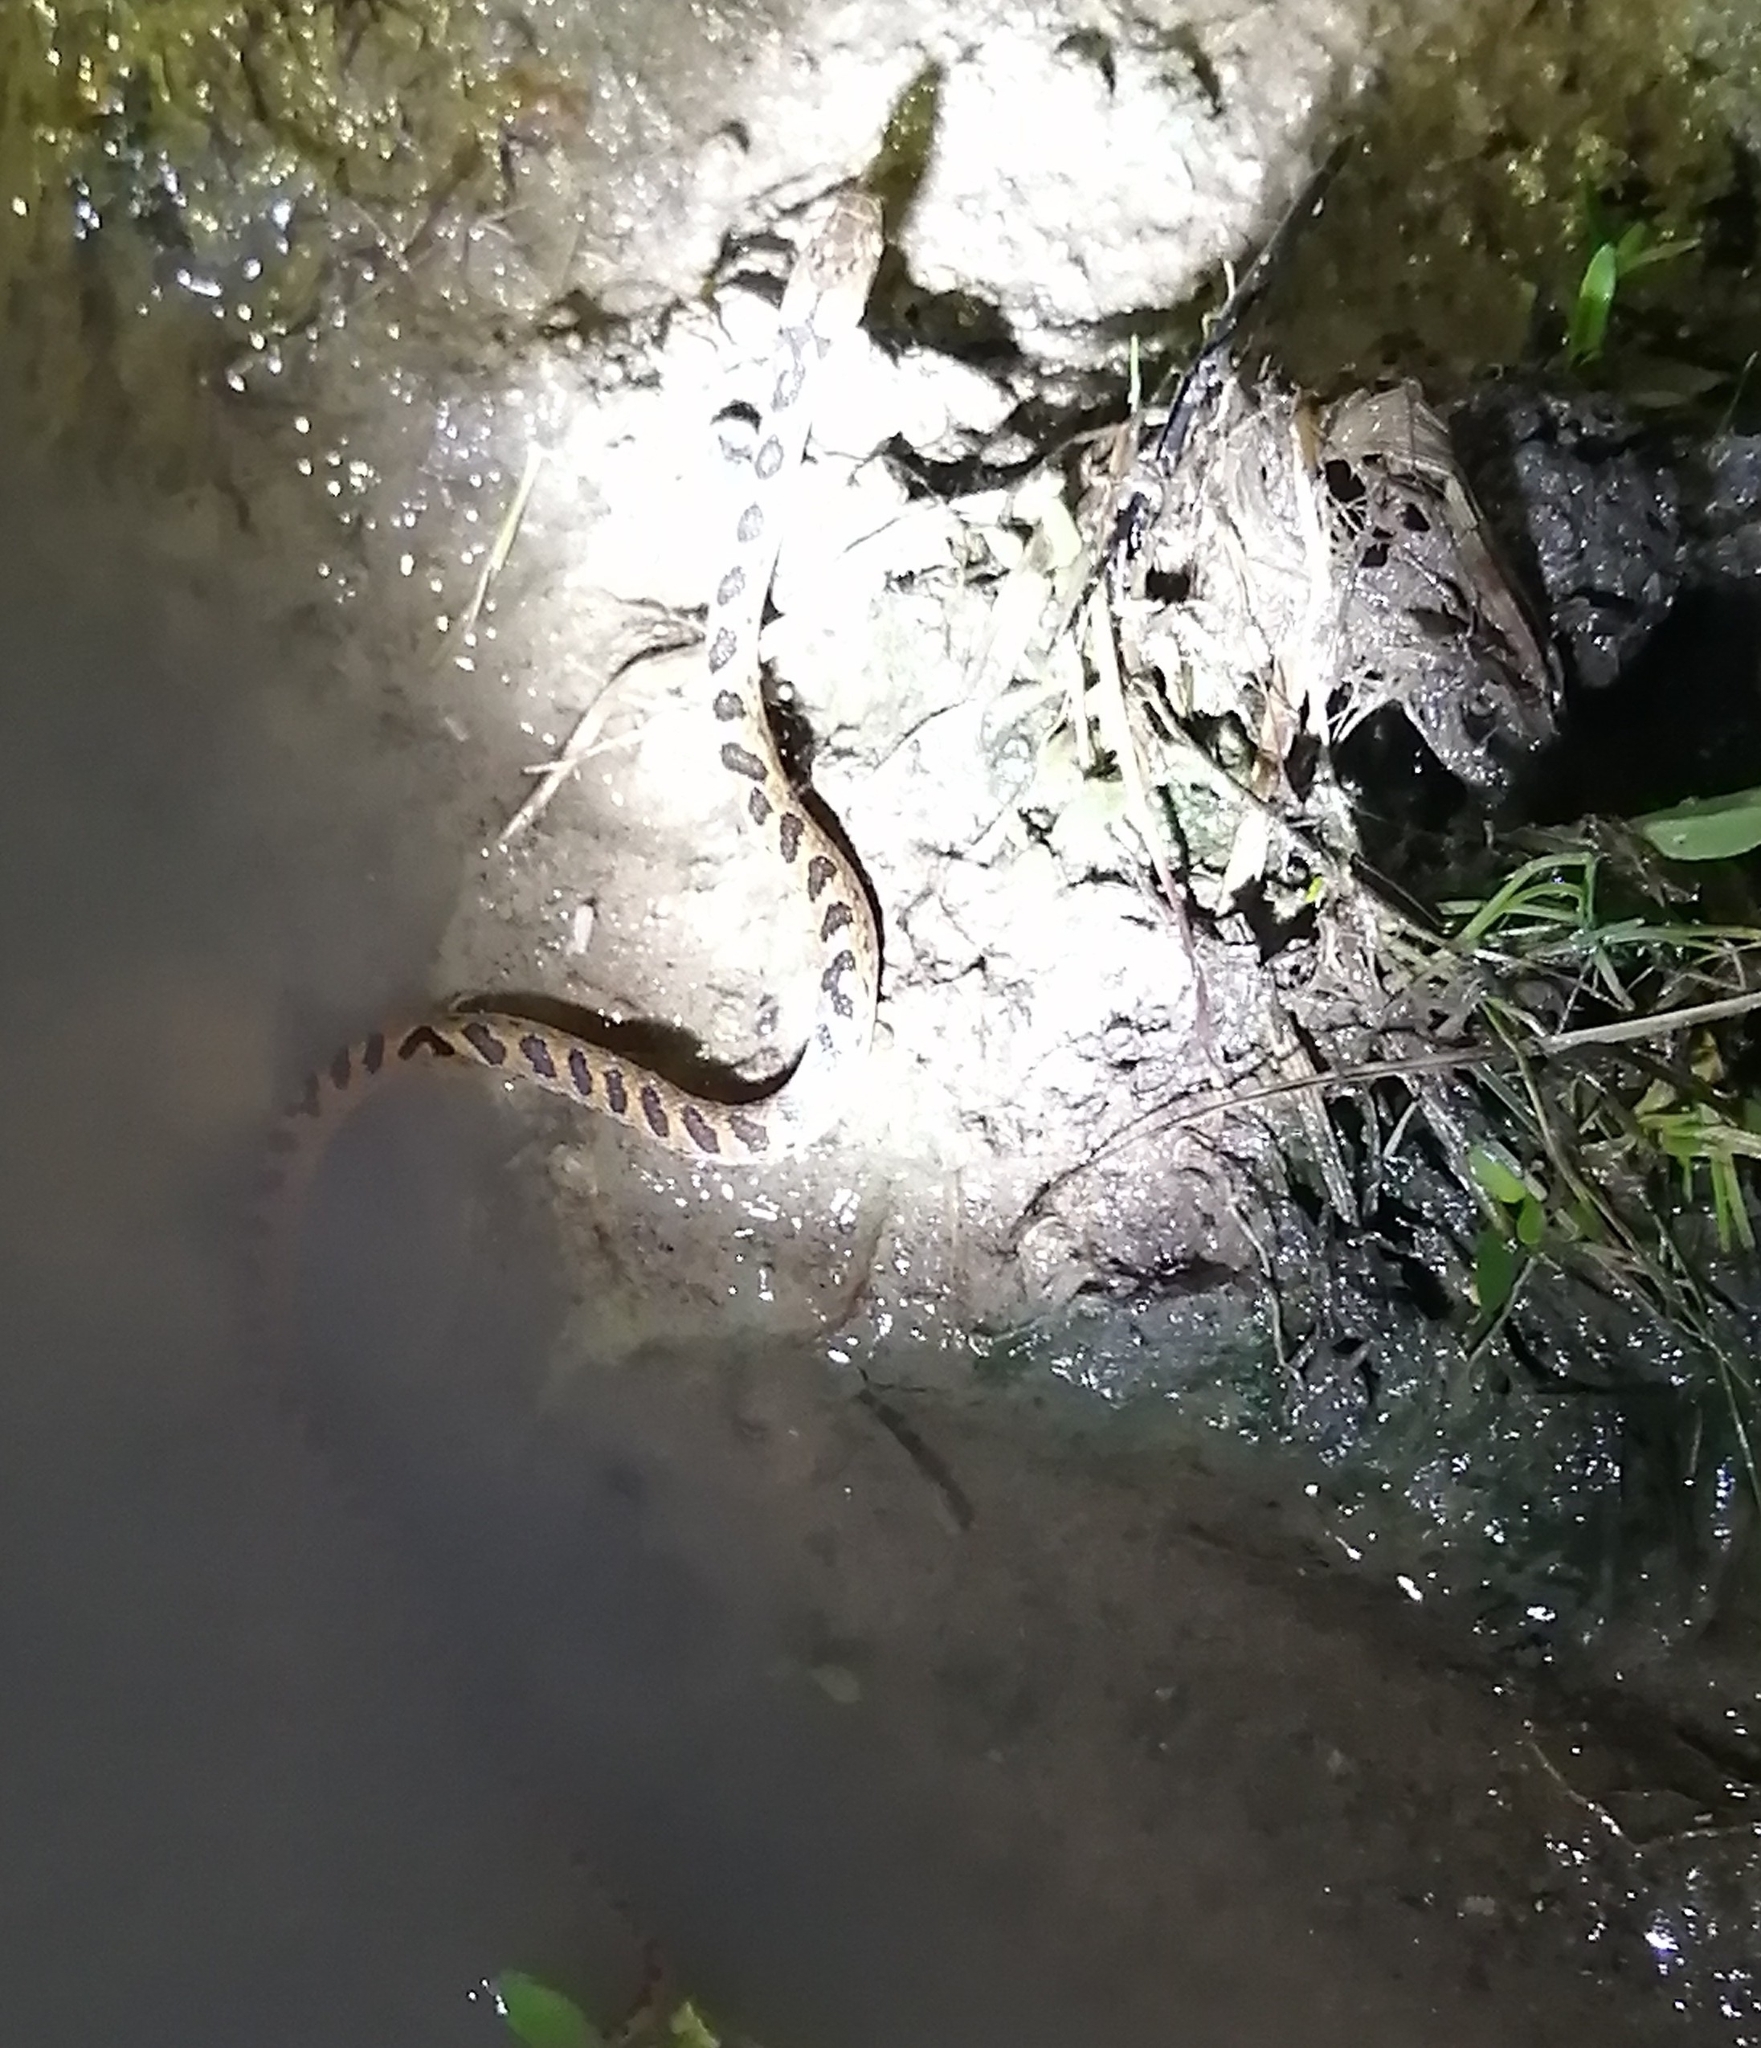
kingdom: Animalia
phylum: Chordata
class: Squamata
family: Colubridae
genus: Leptodeira
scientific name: Leptodeira rhombifera
